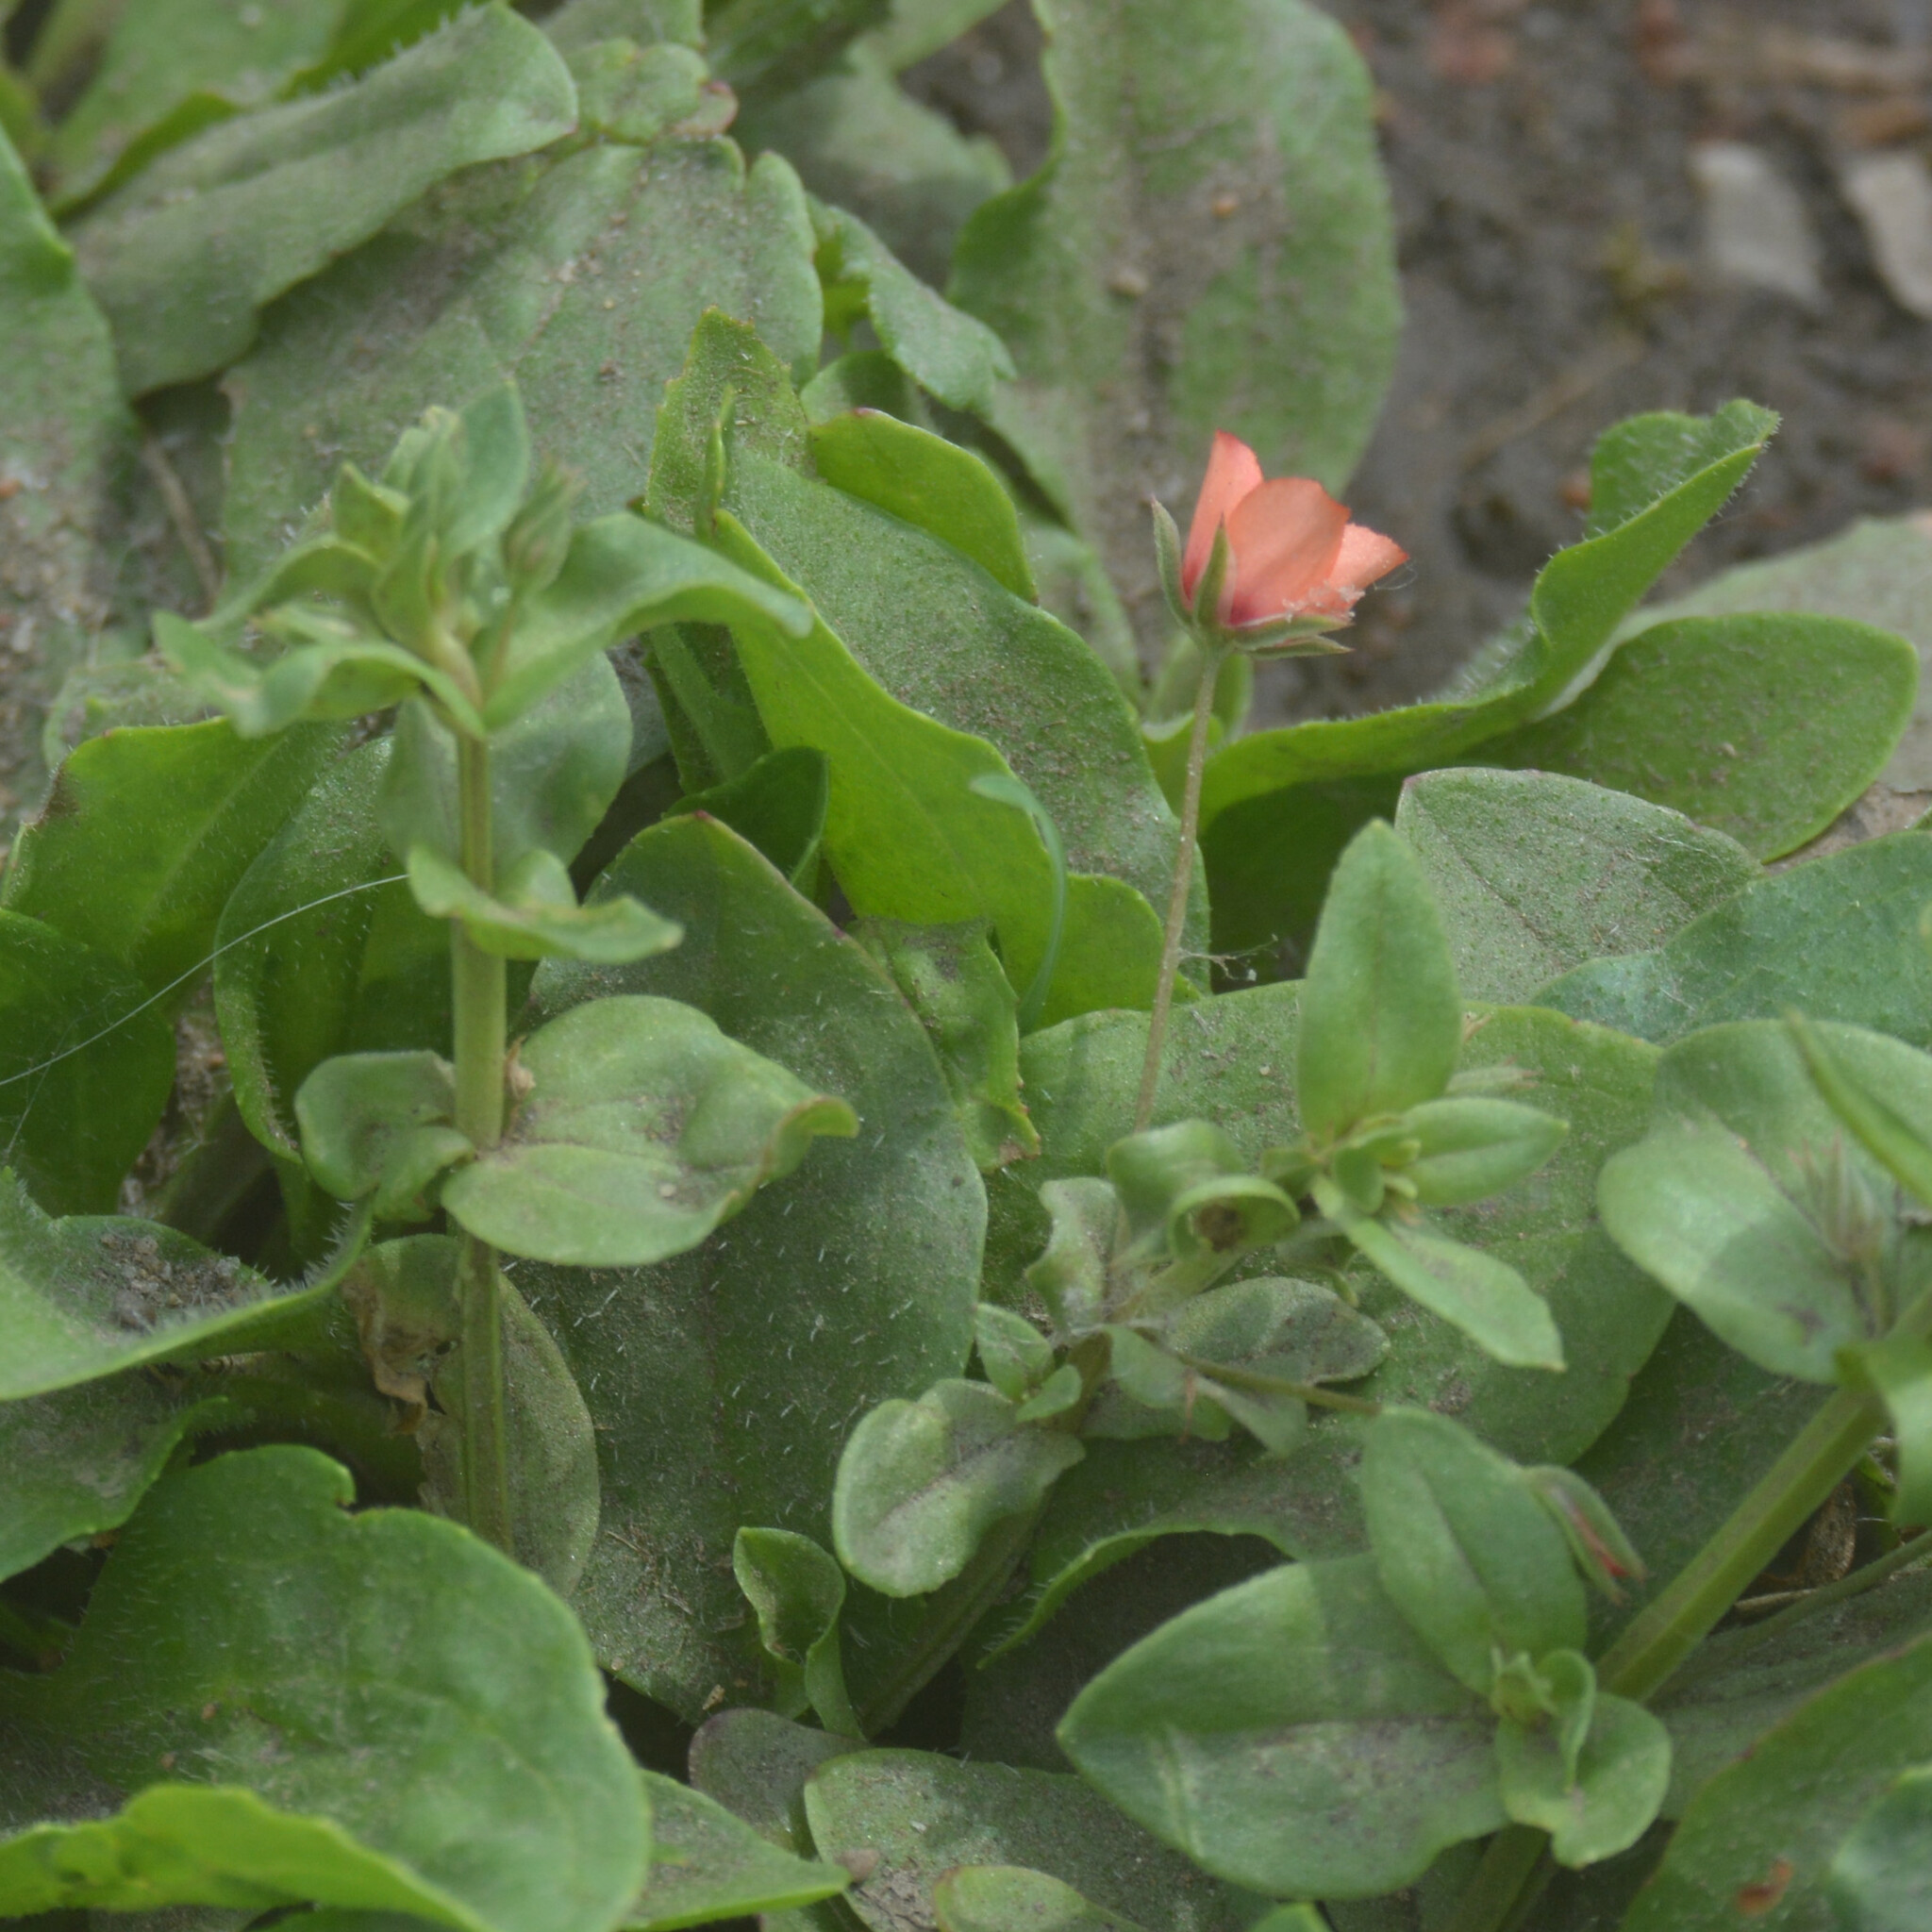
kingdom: Plantae
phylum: Tracheophyta
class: Magnoliopsida
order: Ericales
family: Primulaceae
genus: Lysimachia
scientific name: Lysimachia arvensis
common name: Scarlet pimpernel
